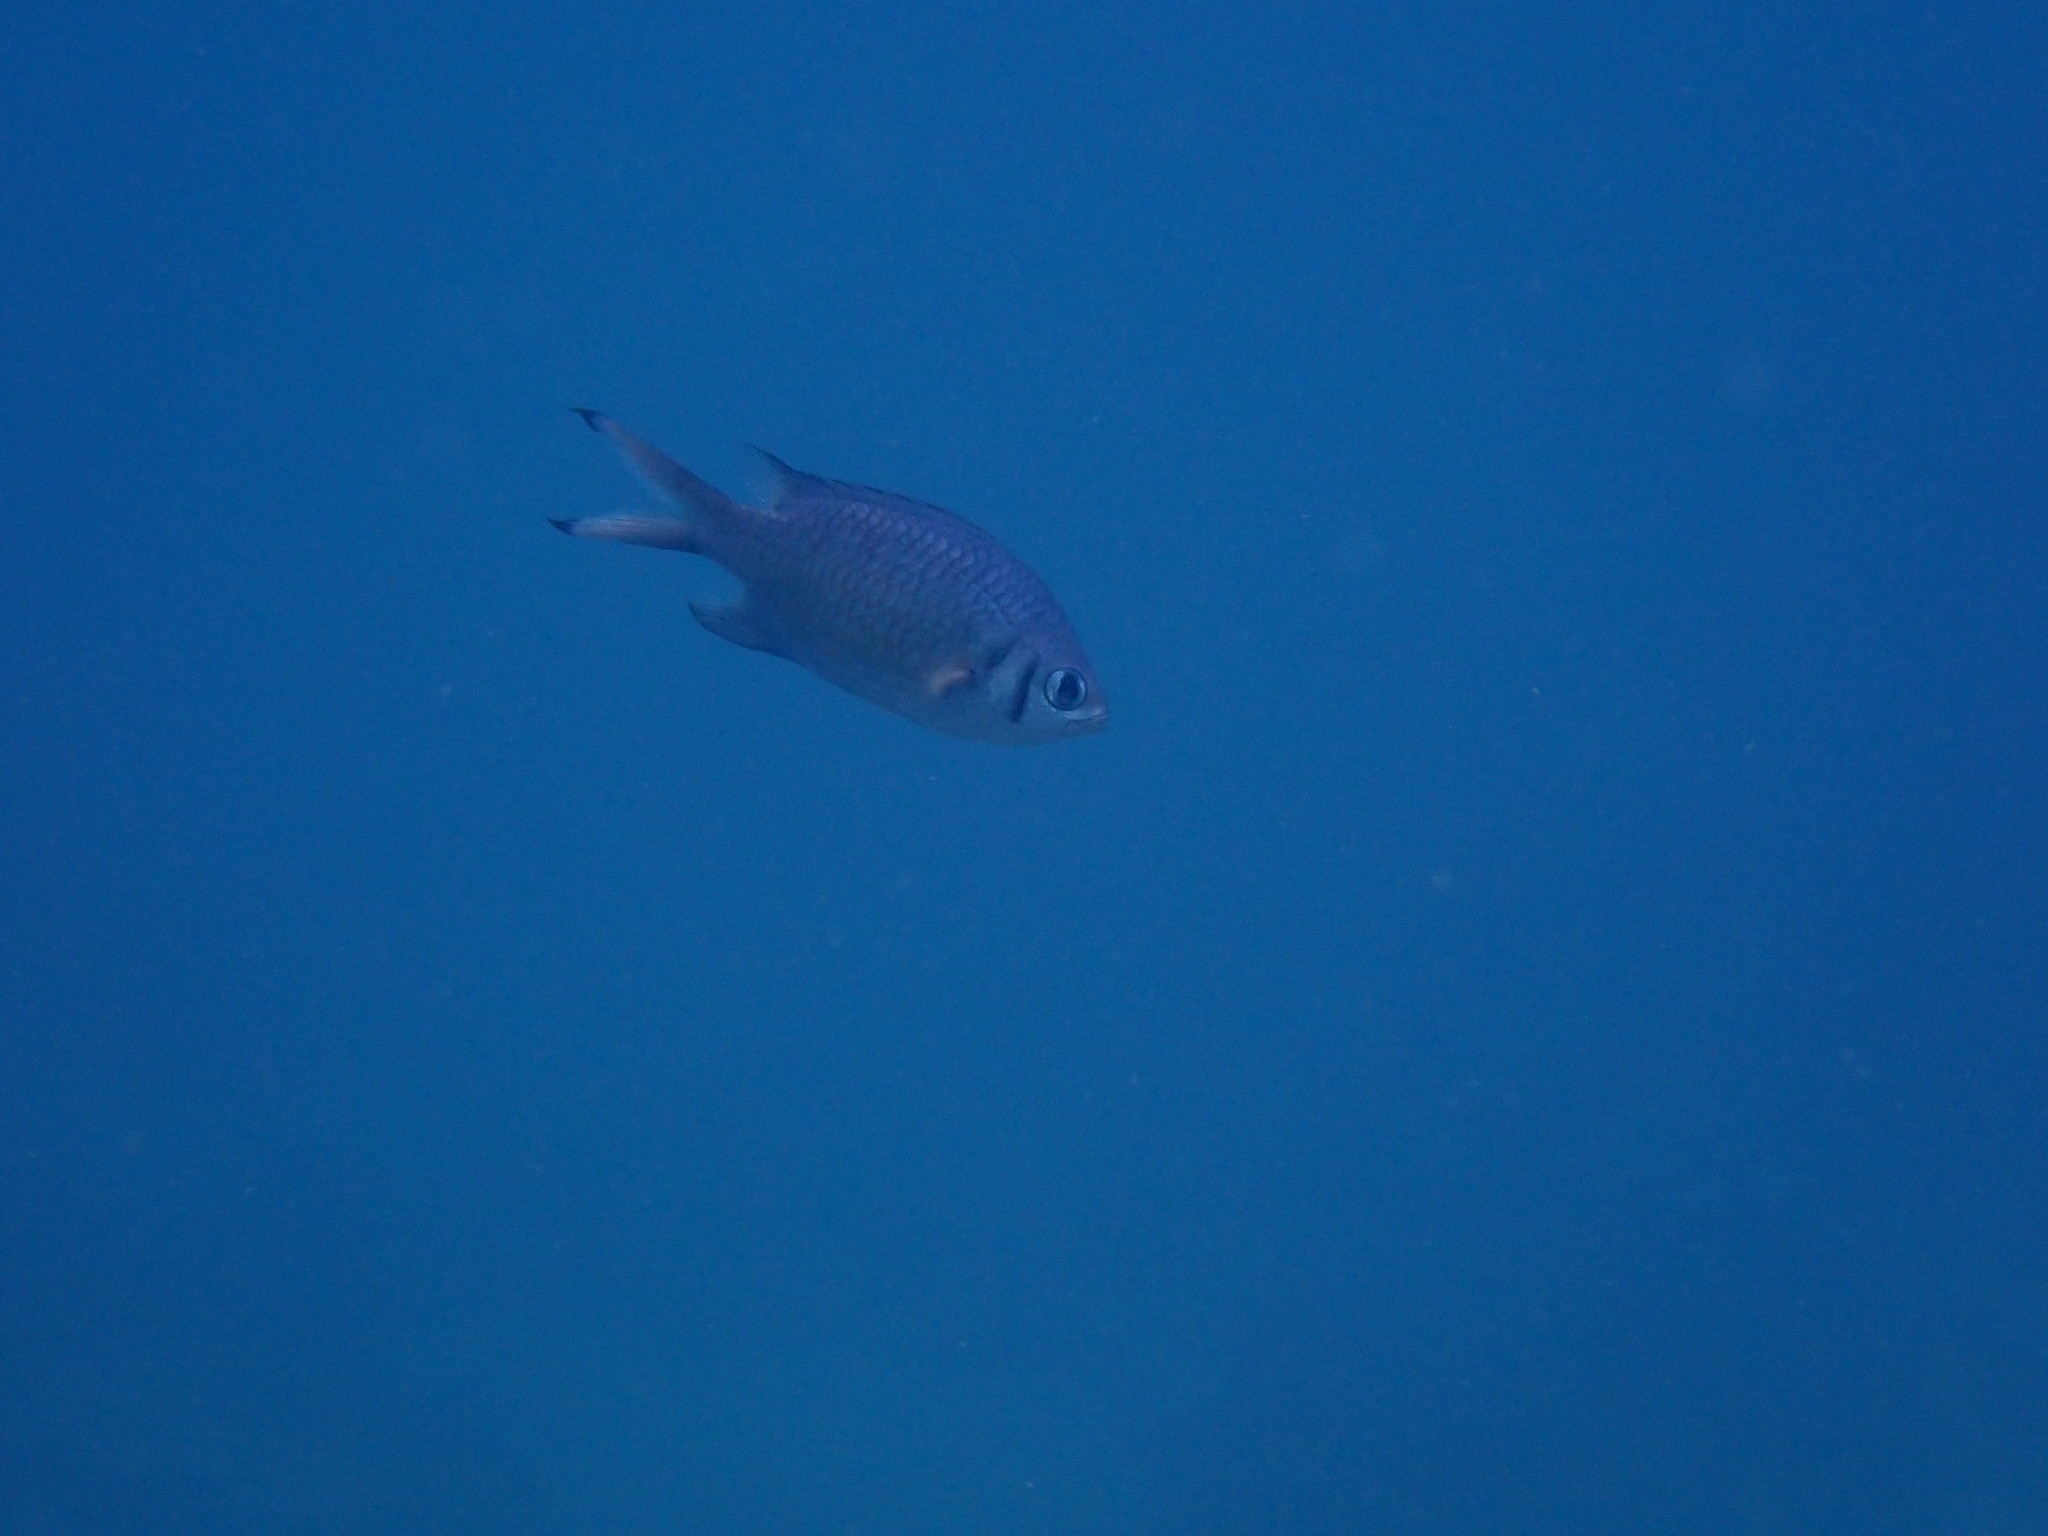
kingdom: Animalia
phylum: Chordata
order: Perciformes
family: Pomacentridae
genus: Chromis
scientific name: Chromis weberi
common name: Weber's chromis
